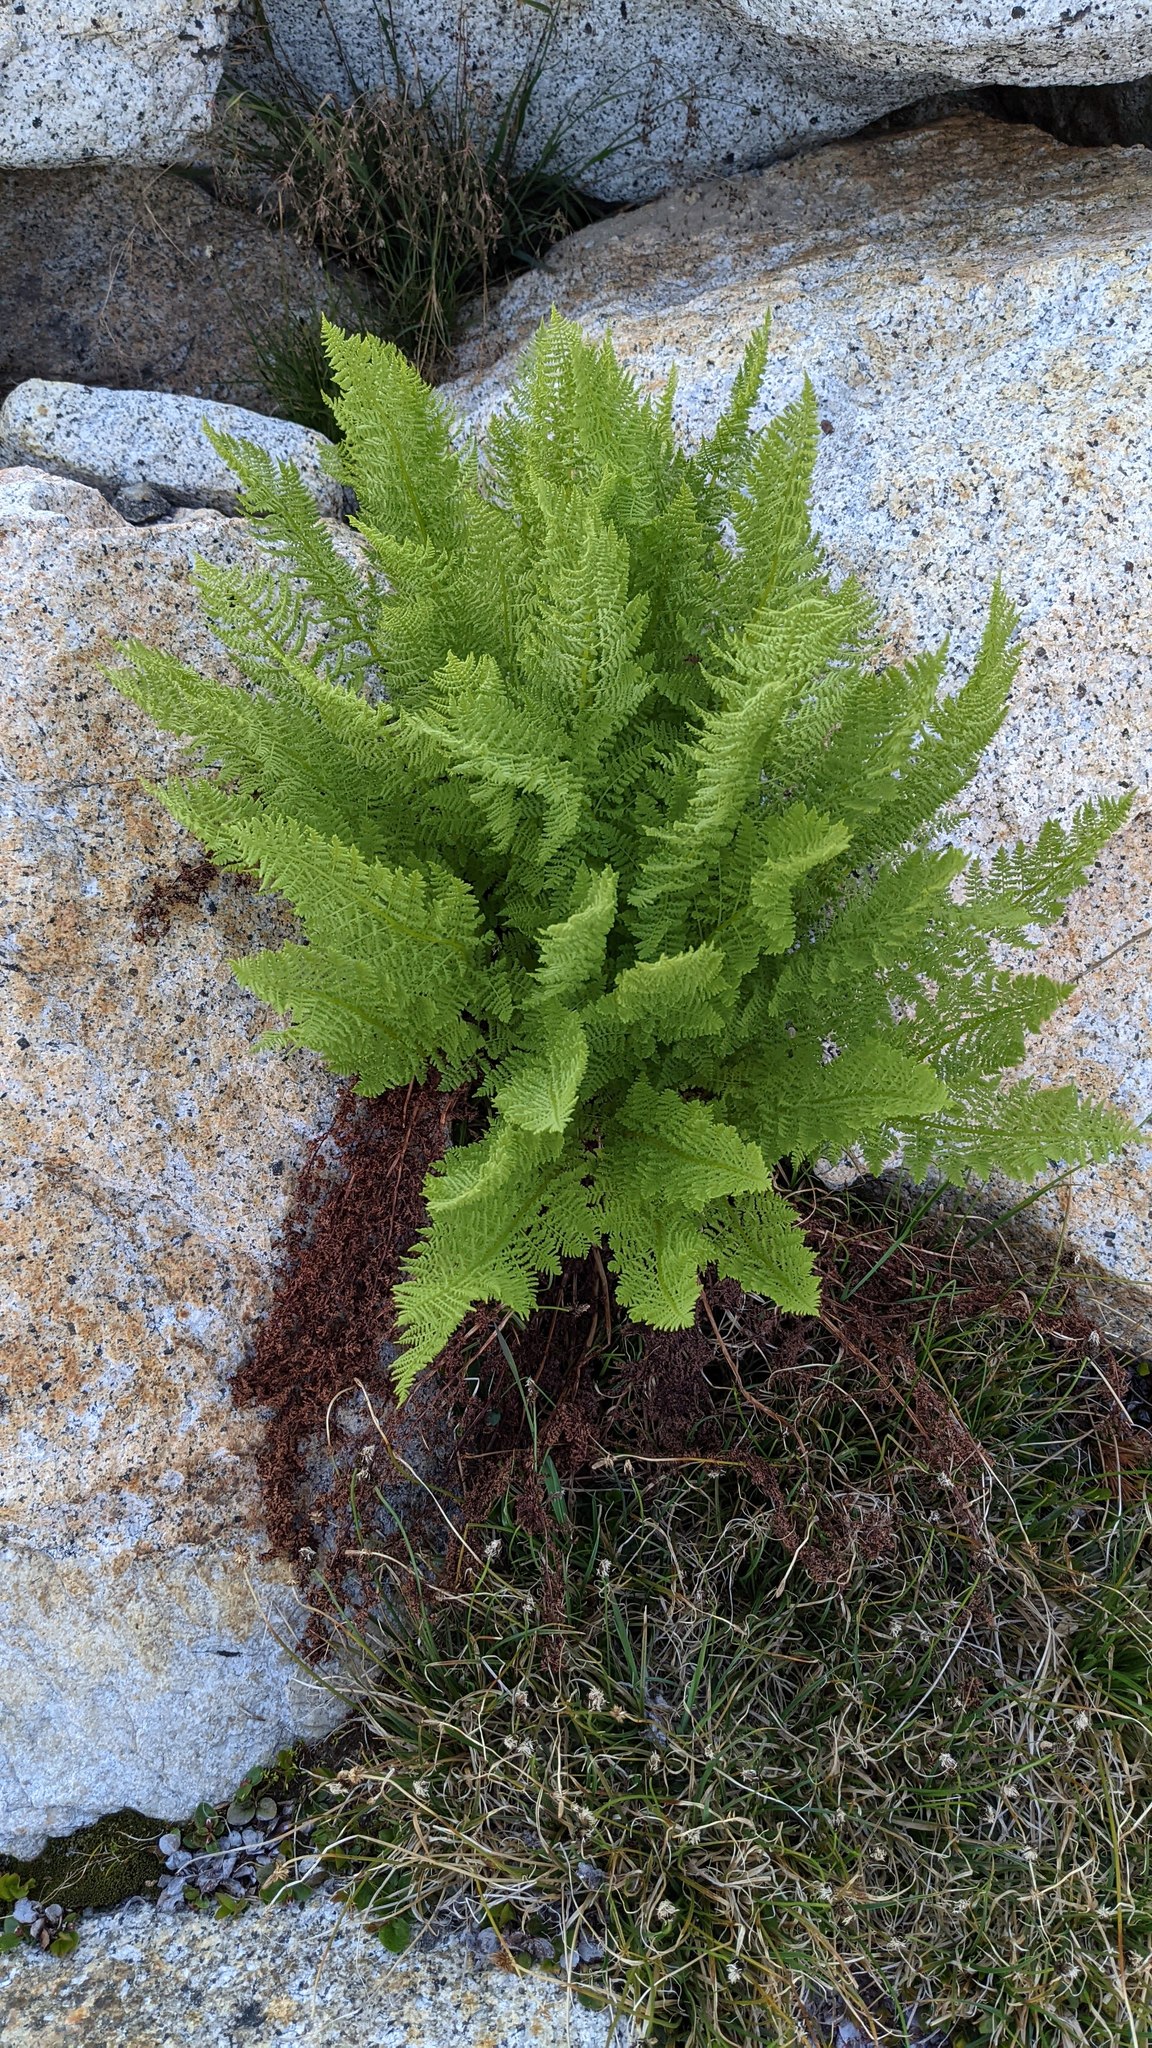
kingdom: Plantae
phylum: Tracheophyta
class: Polypodiopsida
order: Polypodiales
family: Athyriaceae
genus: Athyrium
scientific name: Athyrium americanum
